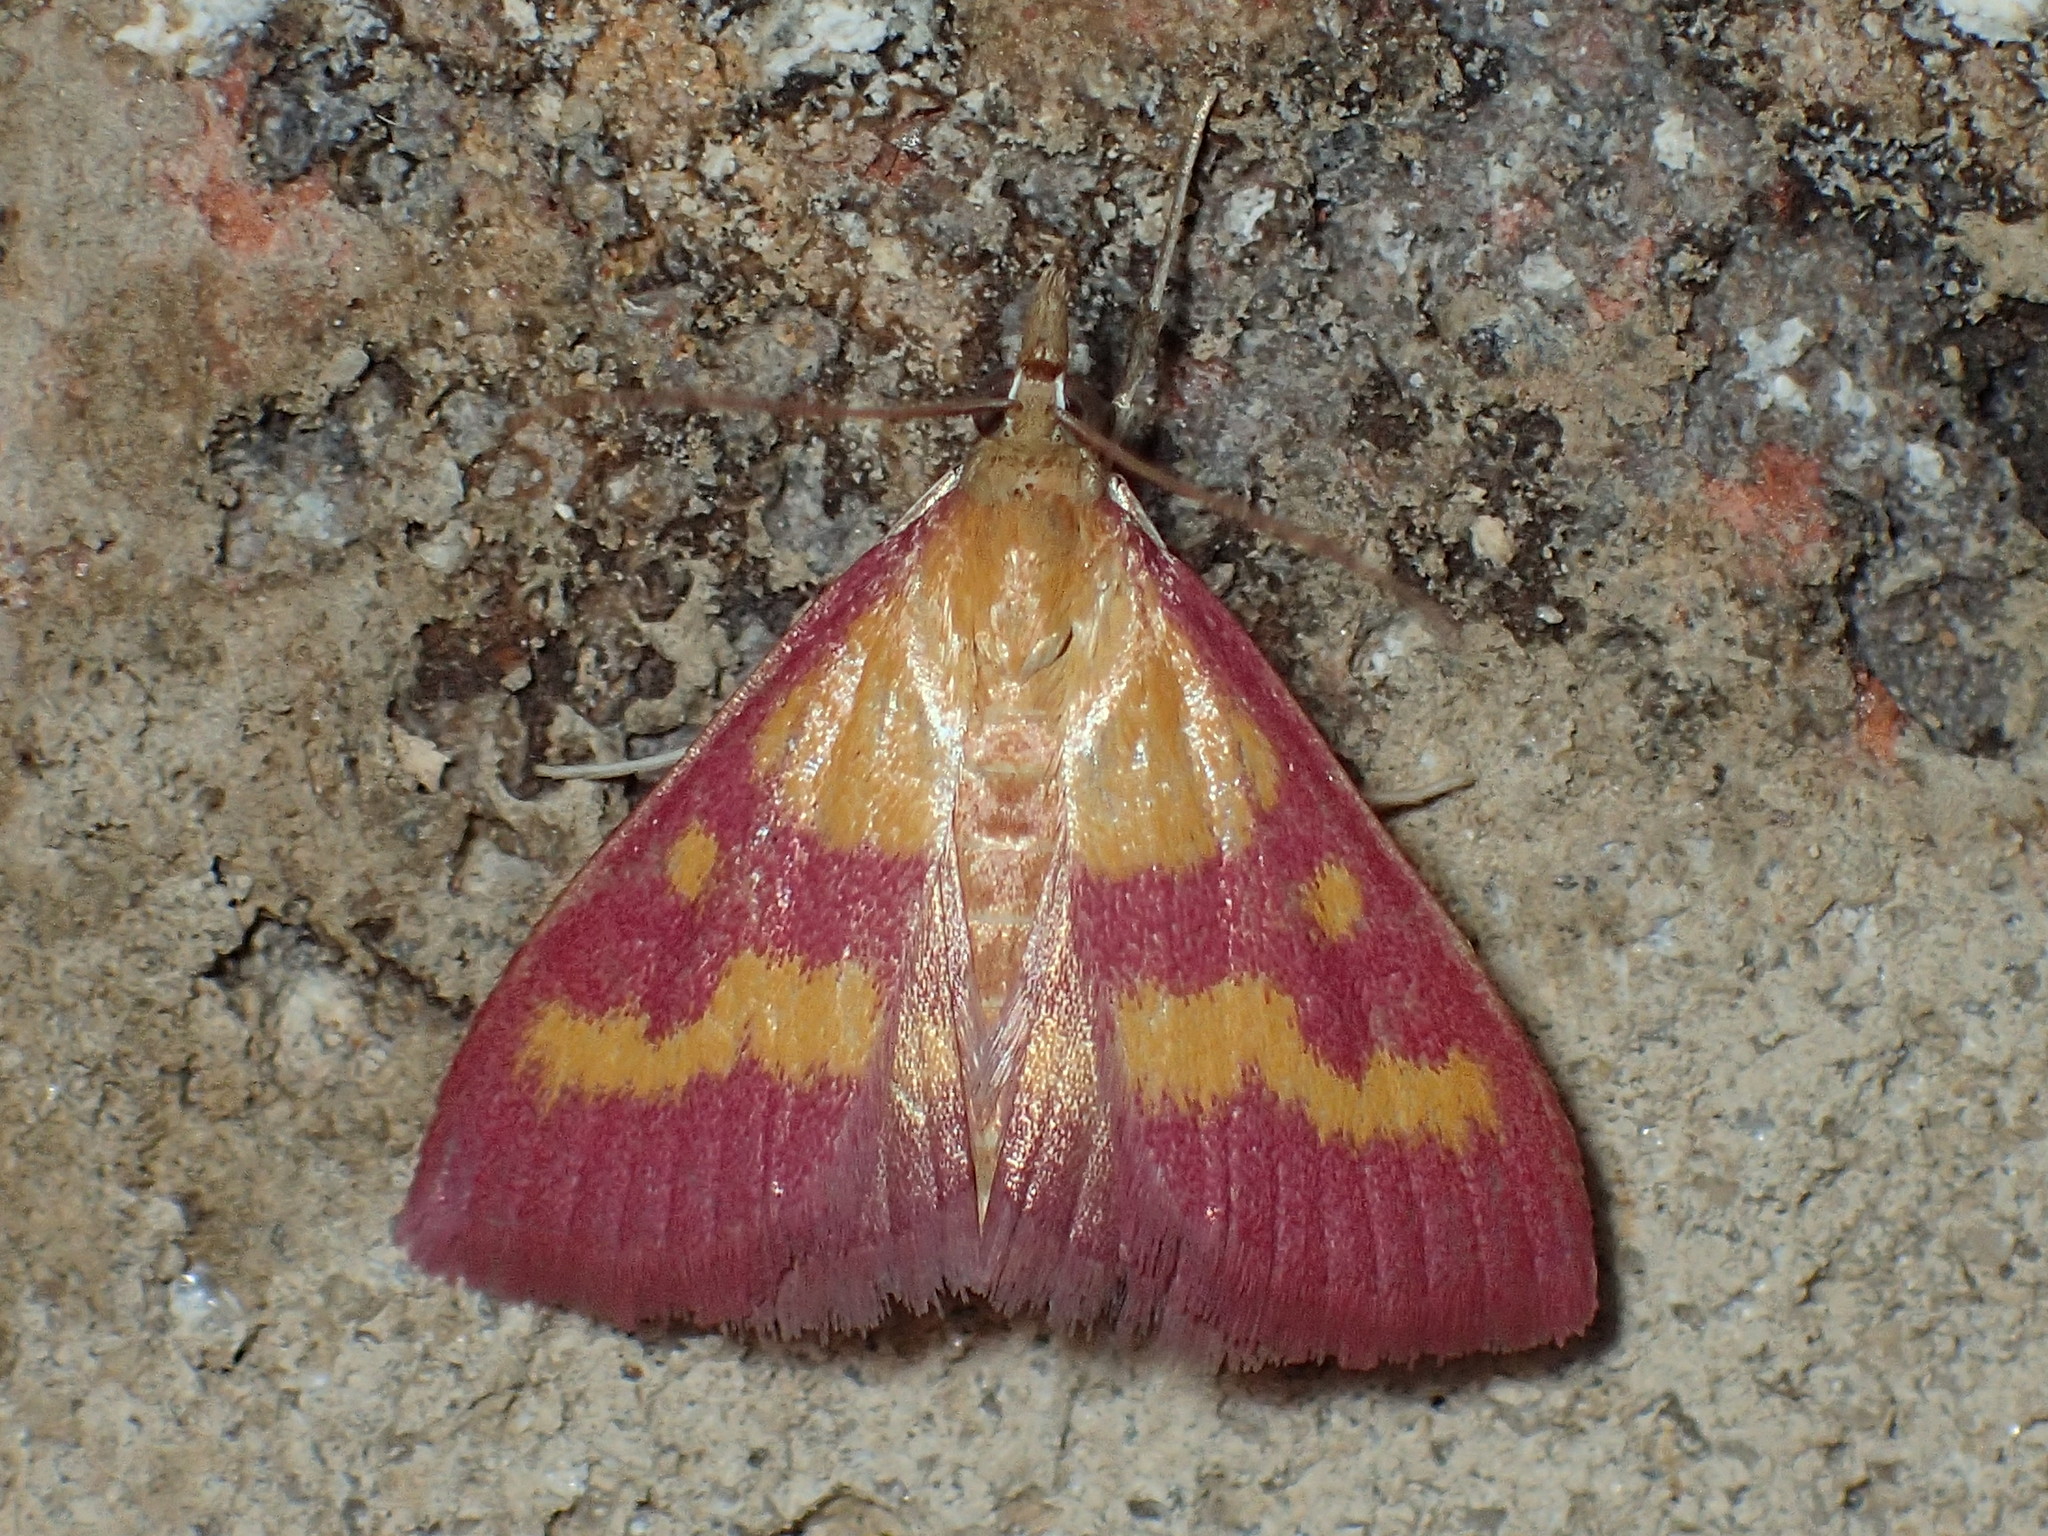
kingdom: Animalia
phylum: Arthropoda
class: Insecta
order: Lepidoptera
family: Crambidae
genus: Pyrausta
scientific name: Pyrausta laticlavia
